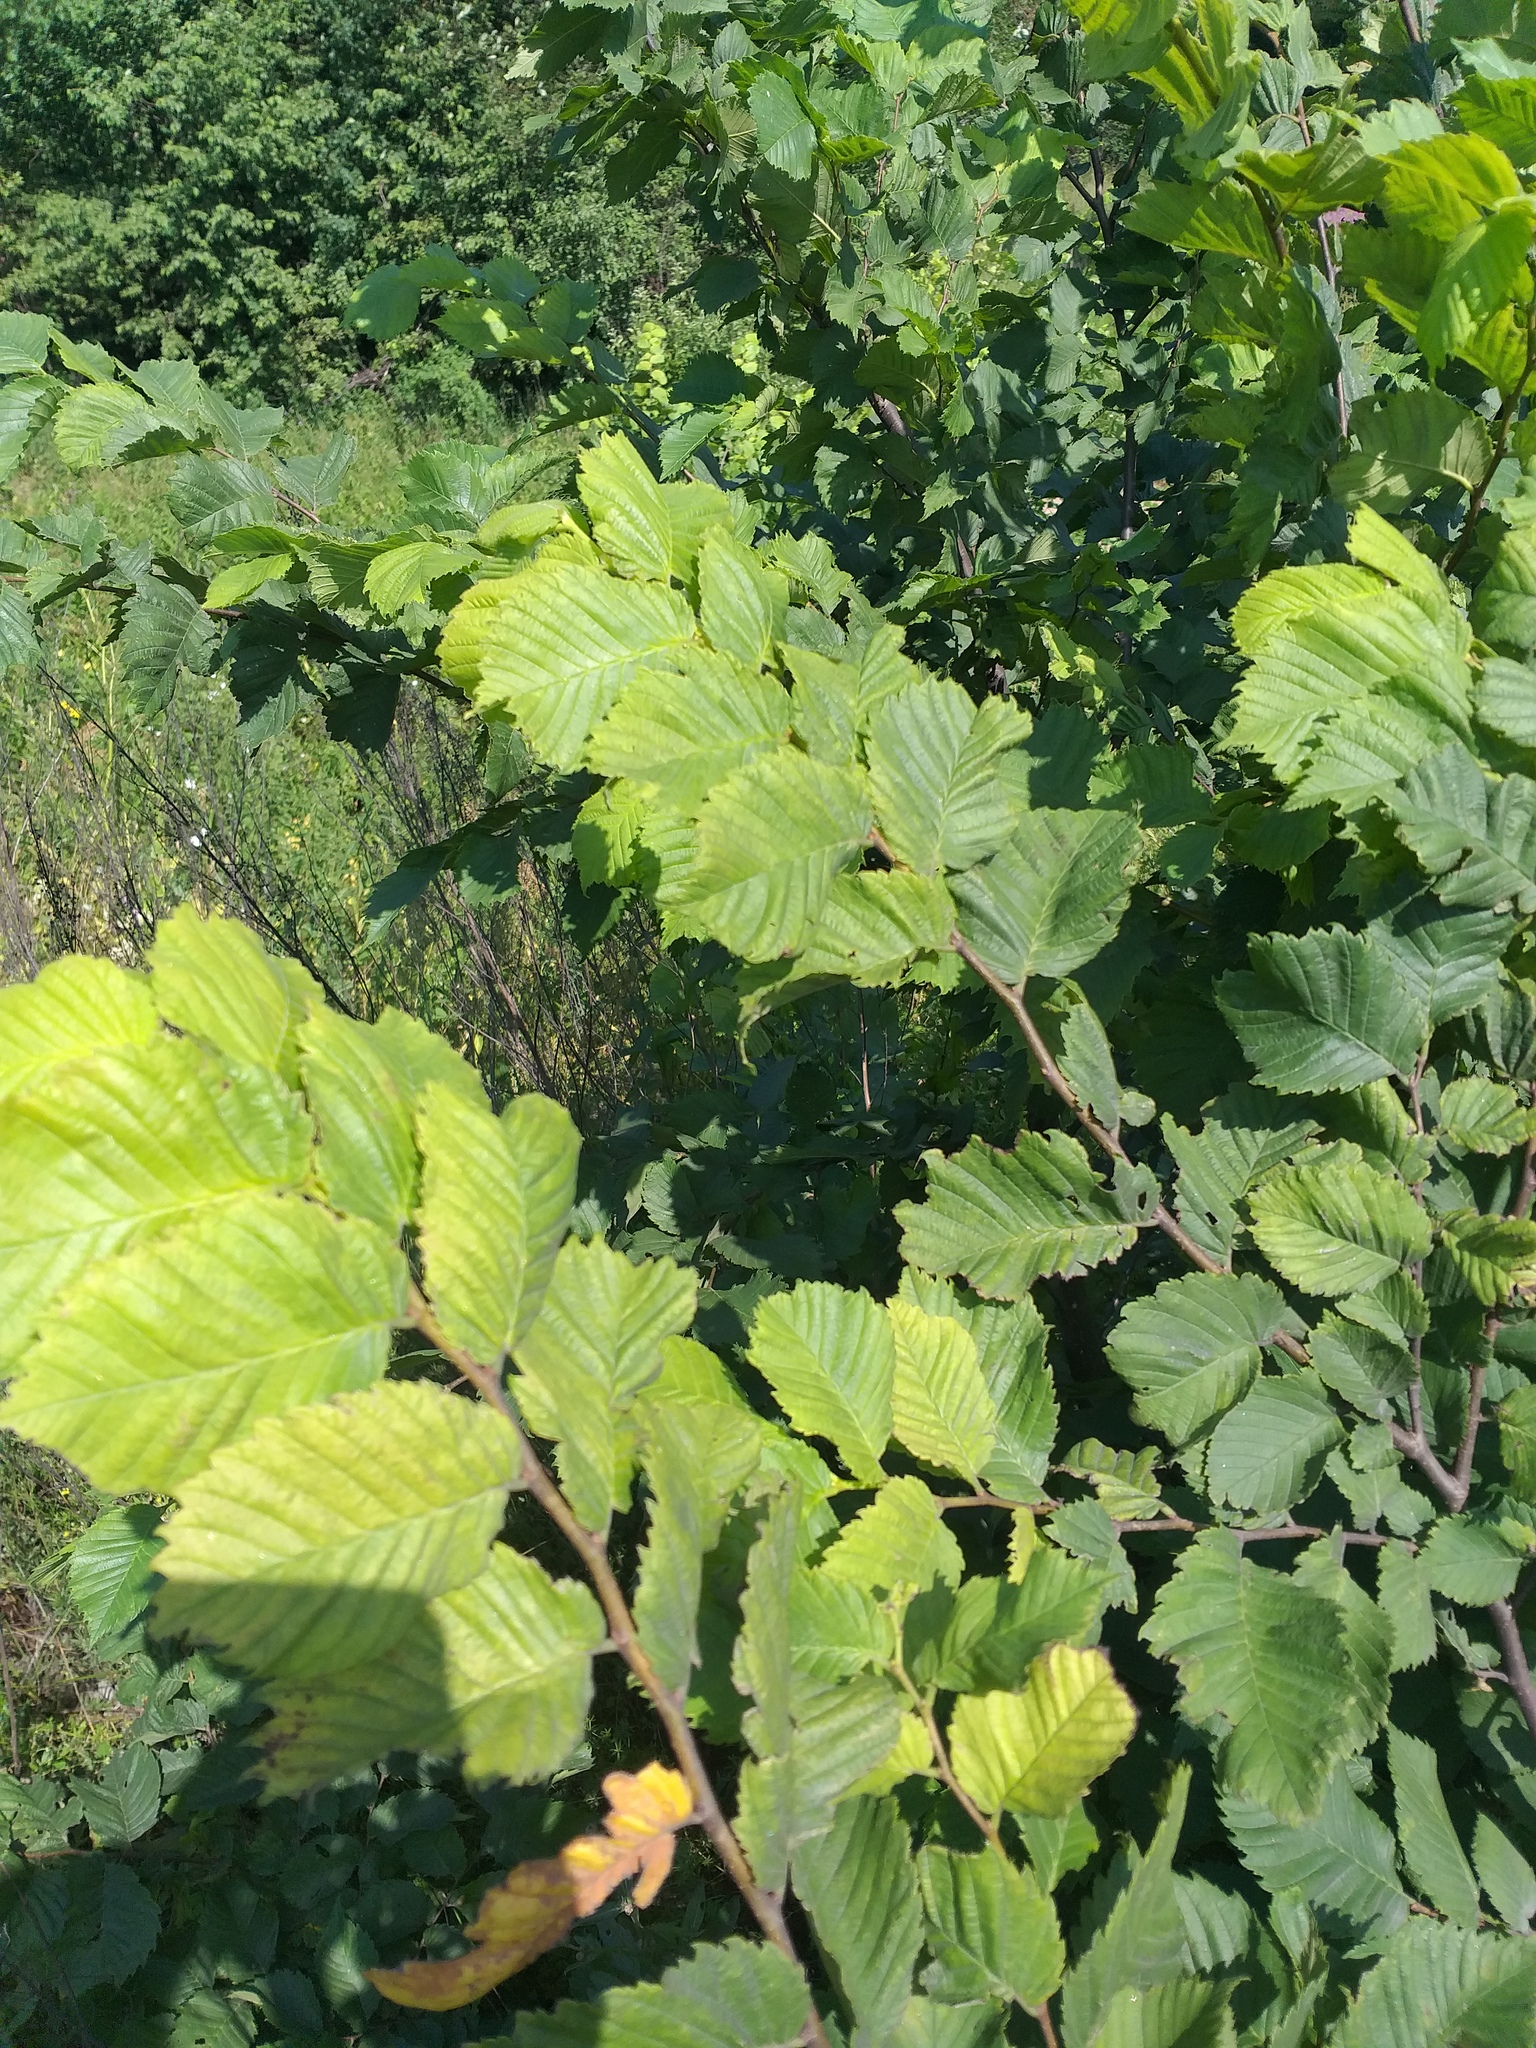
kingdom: Plantae
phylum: Tracheophyta
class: Magnoliopsida
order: Rosales
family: Ulmaceae
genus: Ulmus
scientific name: Ulmus laevis
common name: European white-elm
